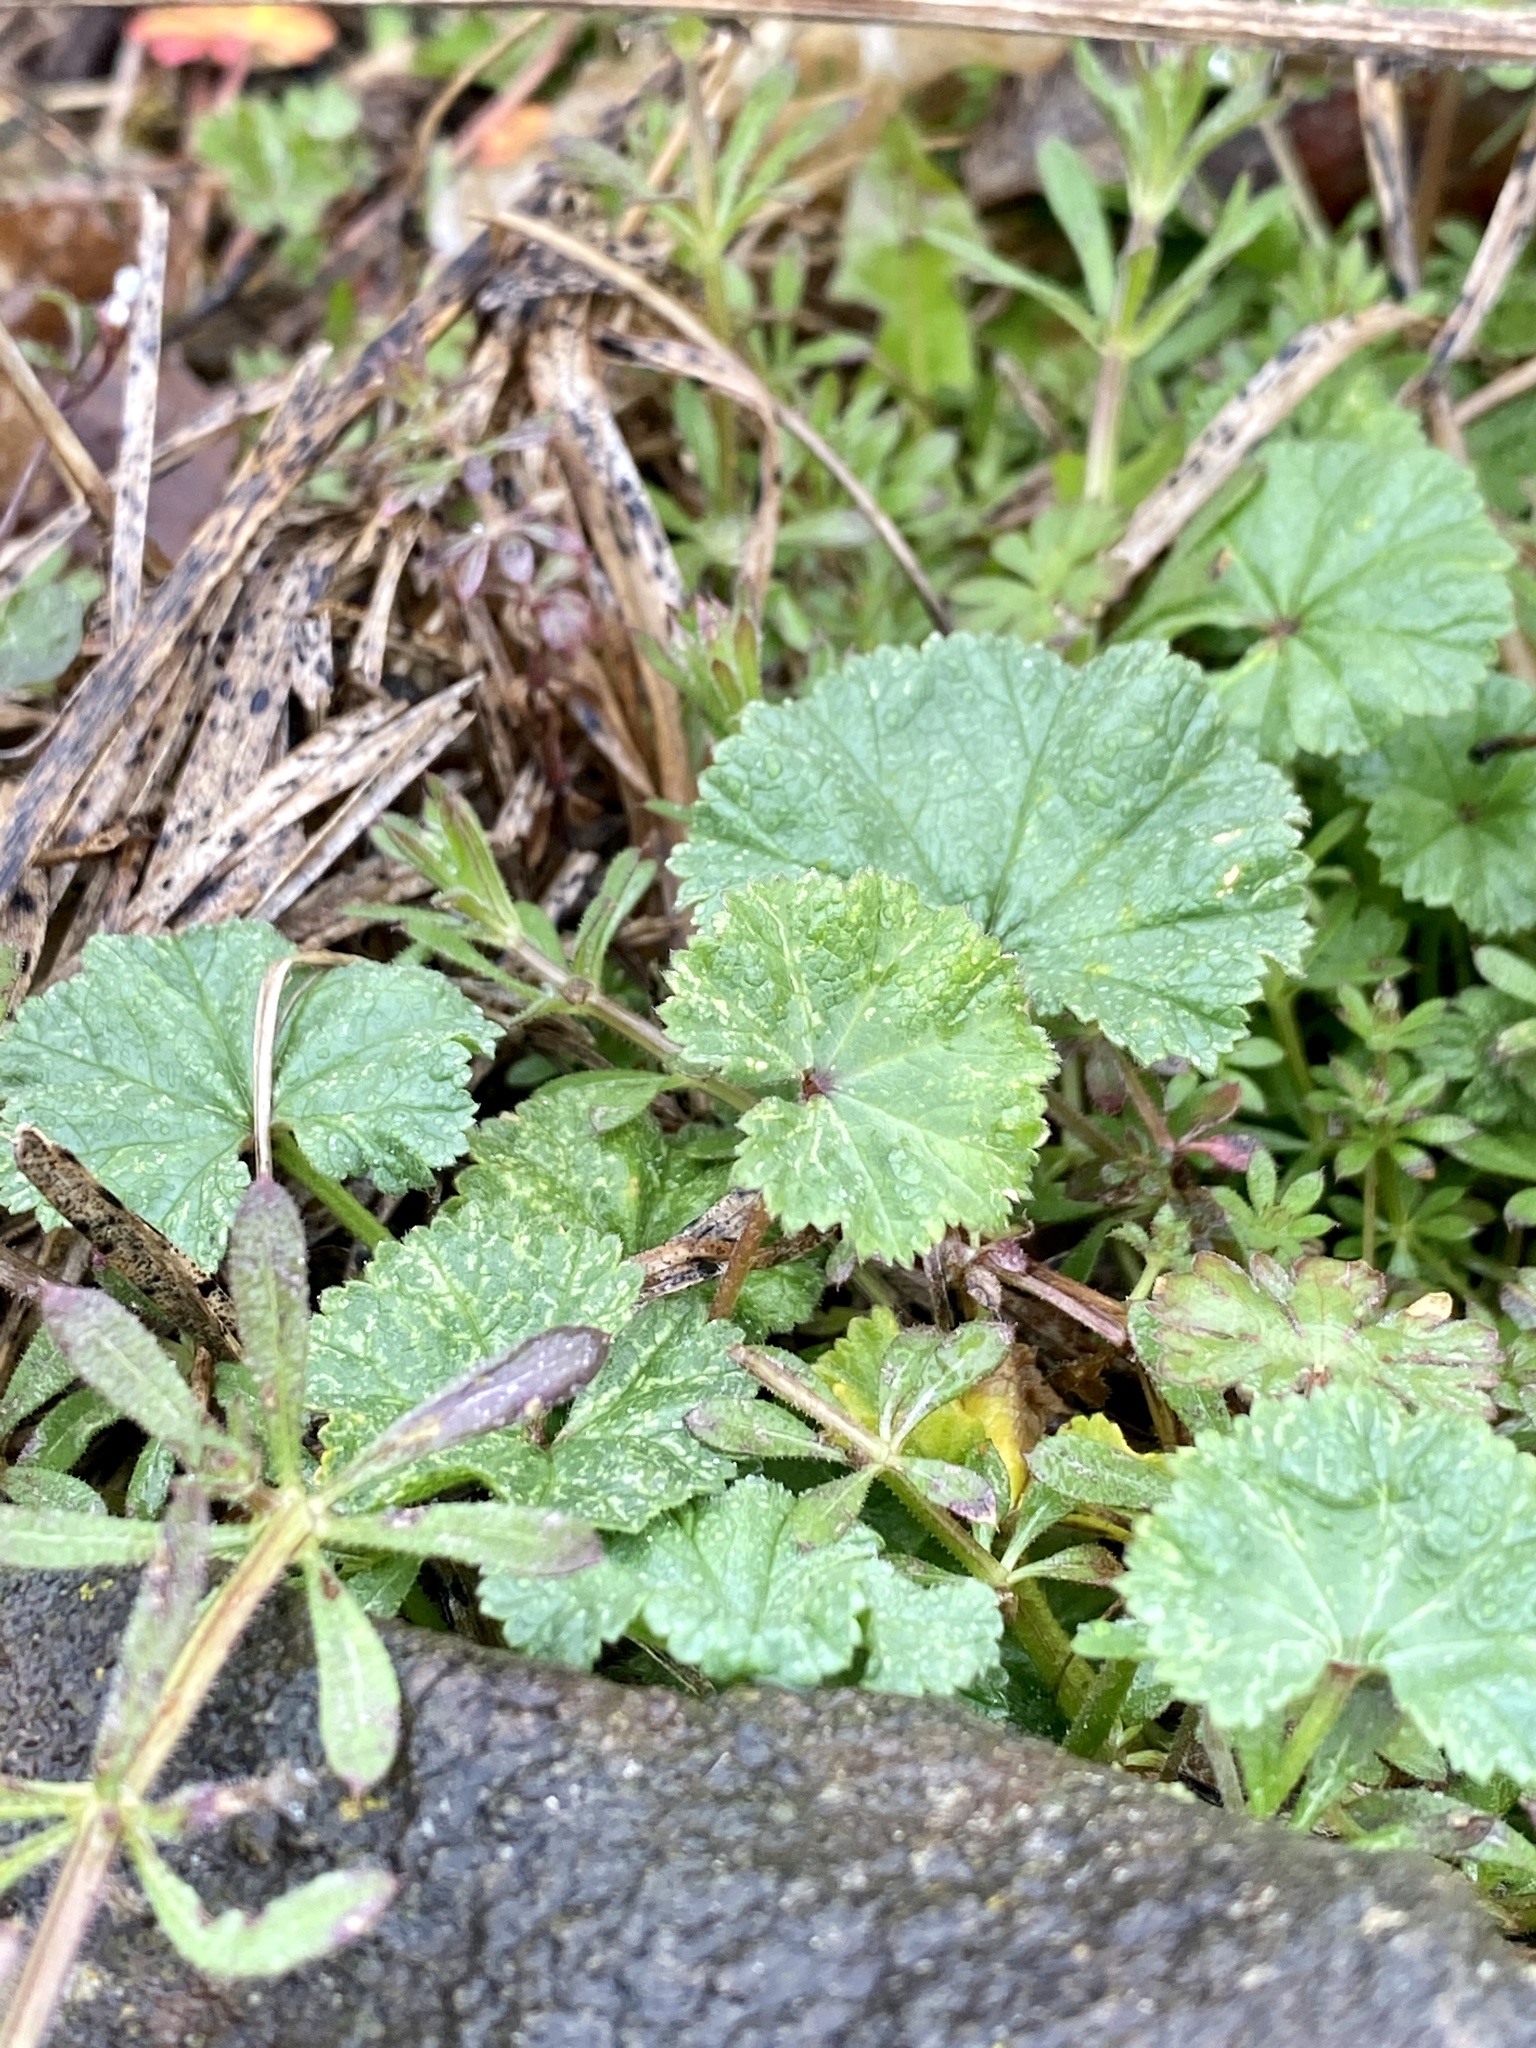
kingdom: Plantae
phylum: Tracheophyta
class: Magnoliopsida
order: Malvales
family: Malvaceae
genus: Malva
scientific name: Malva neglecta
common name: Common mallow
